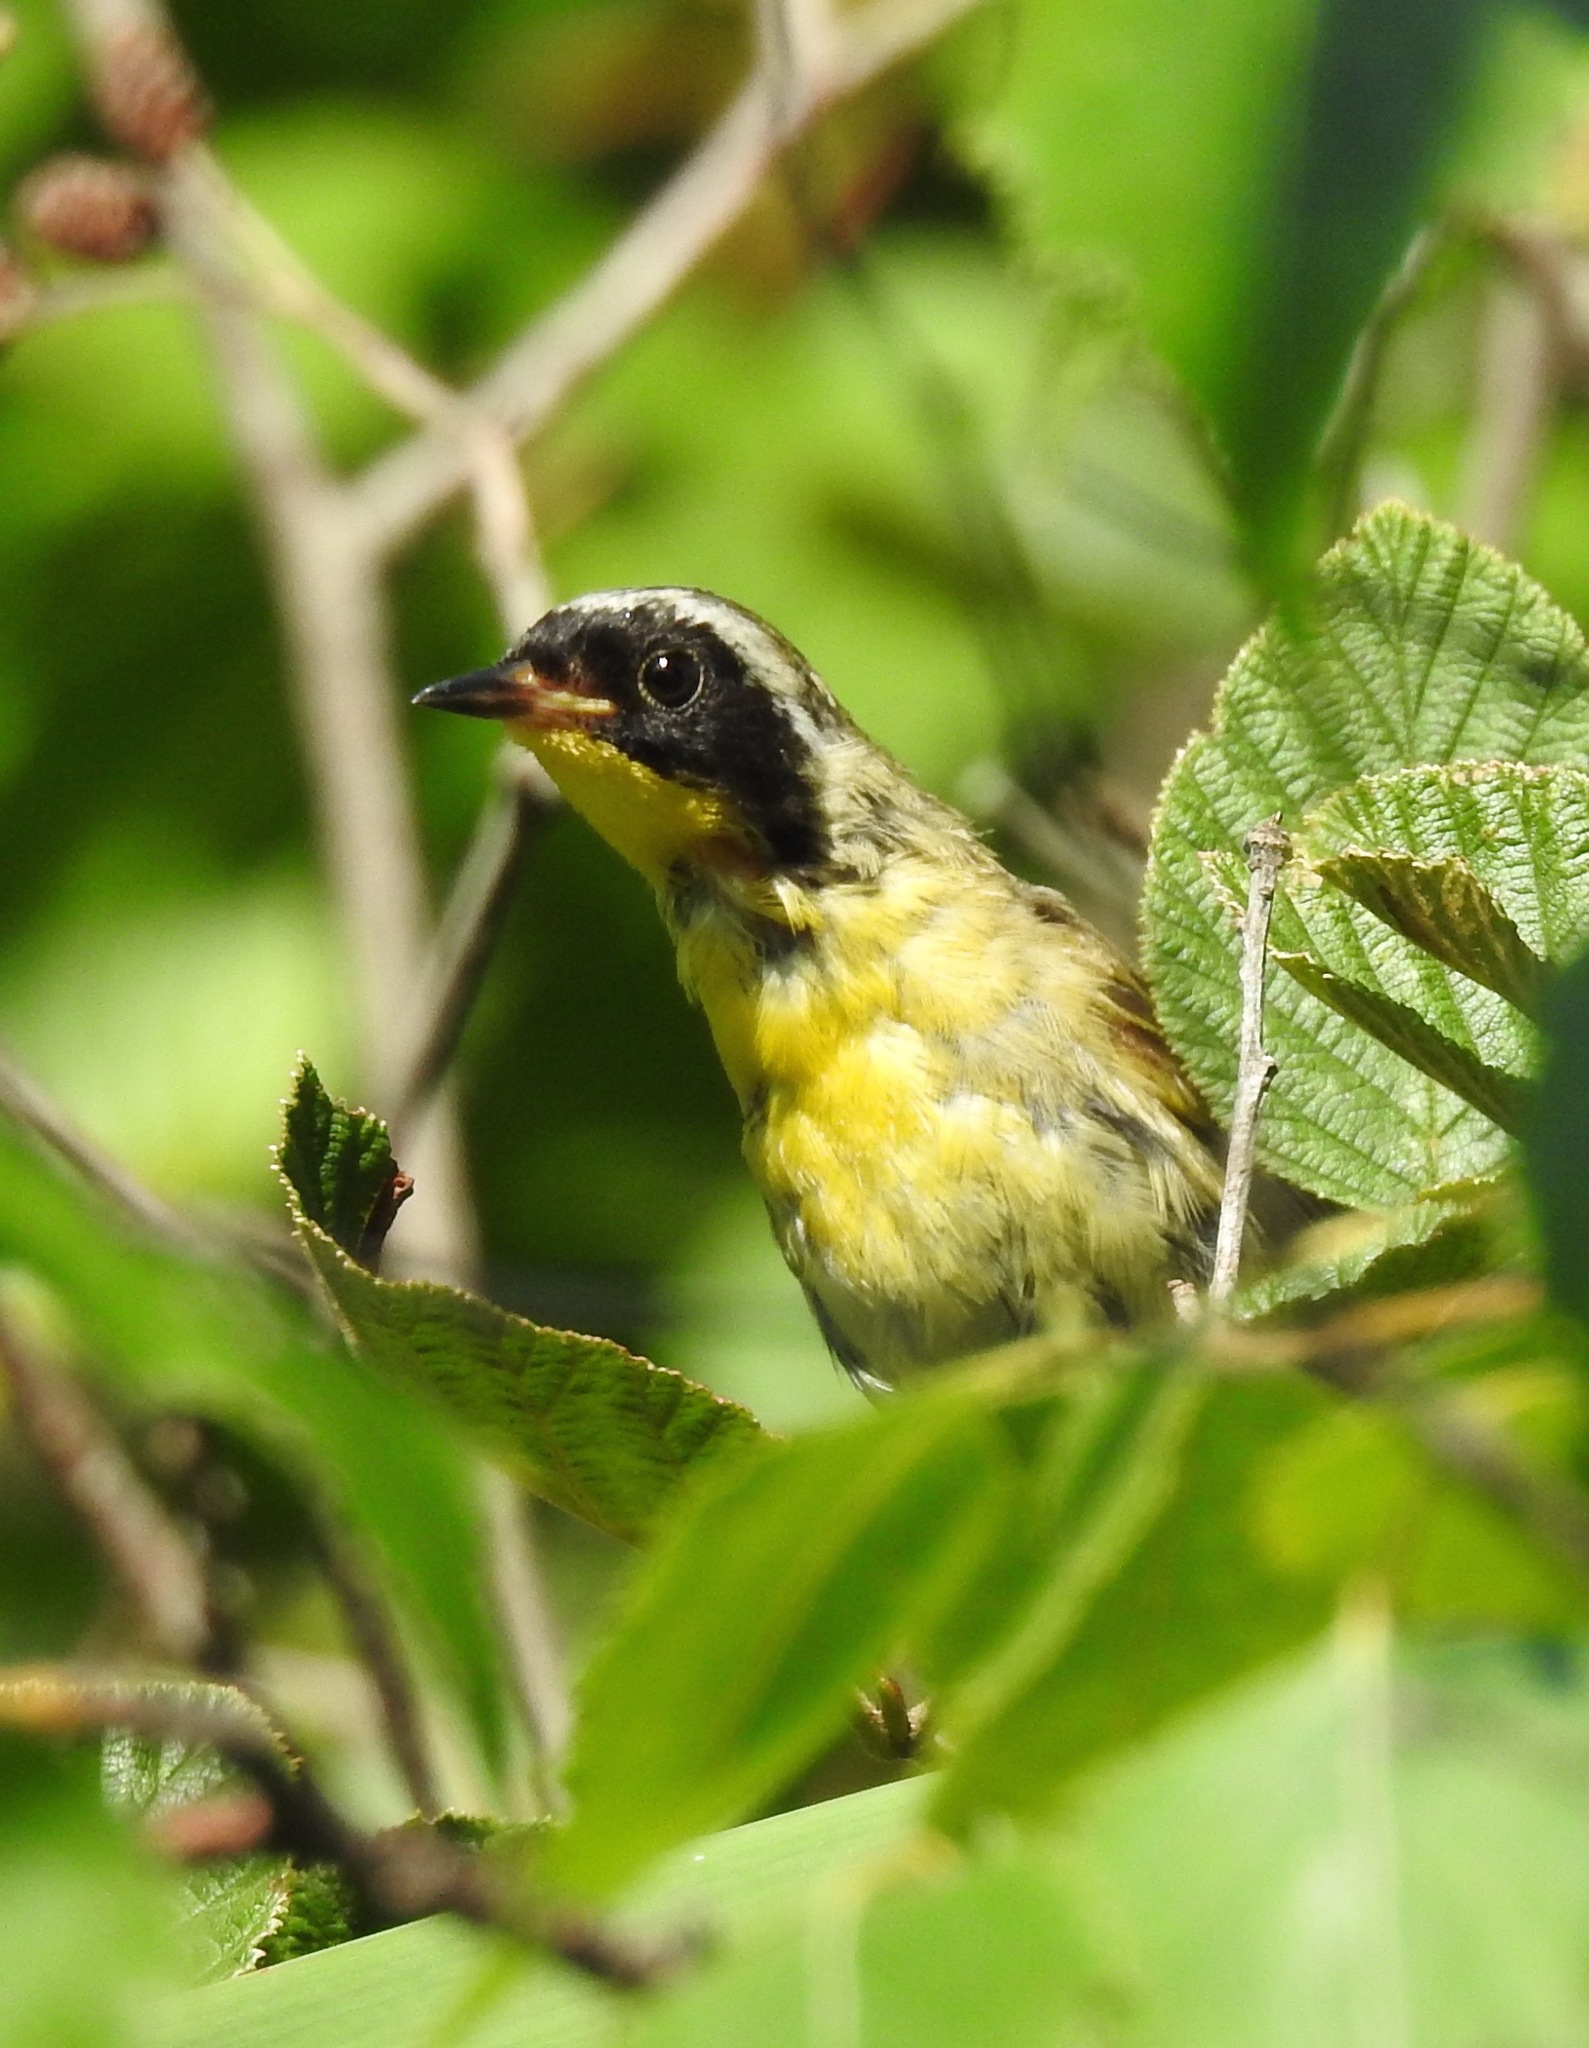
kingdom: Animalia
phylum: Chordata
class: Aves
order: Passeriformes
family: Parulidae
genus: Geothlypis
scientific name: Geothlypis trichas
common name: Common yellowthroat
